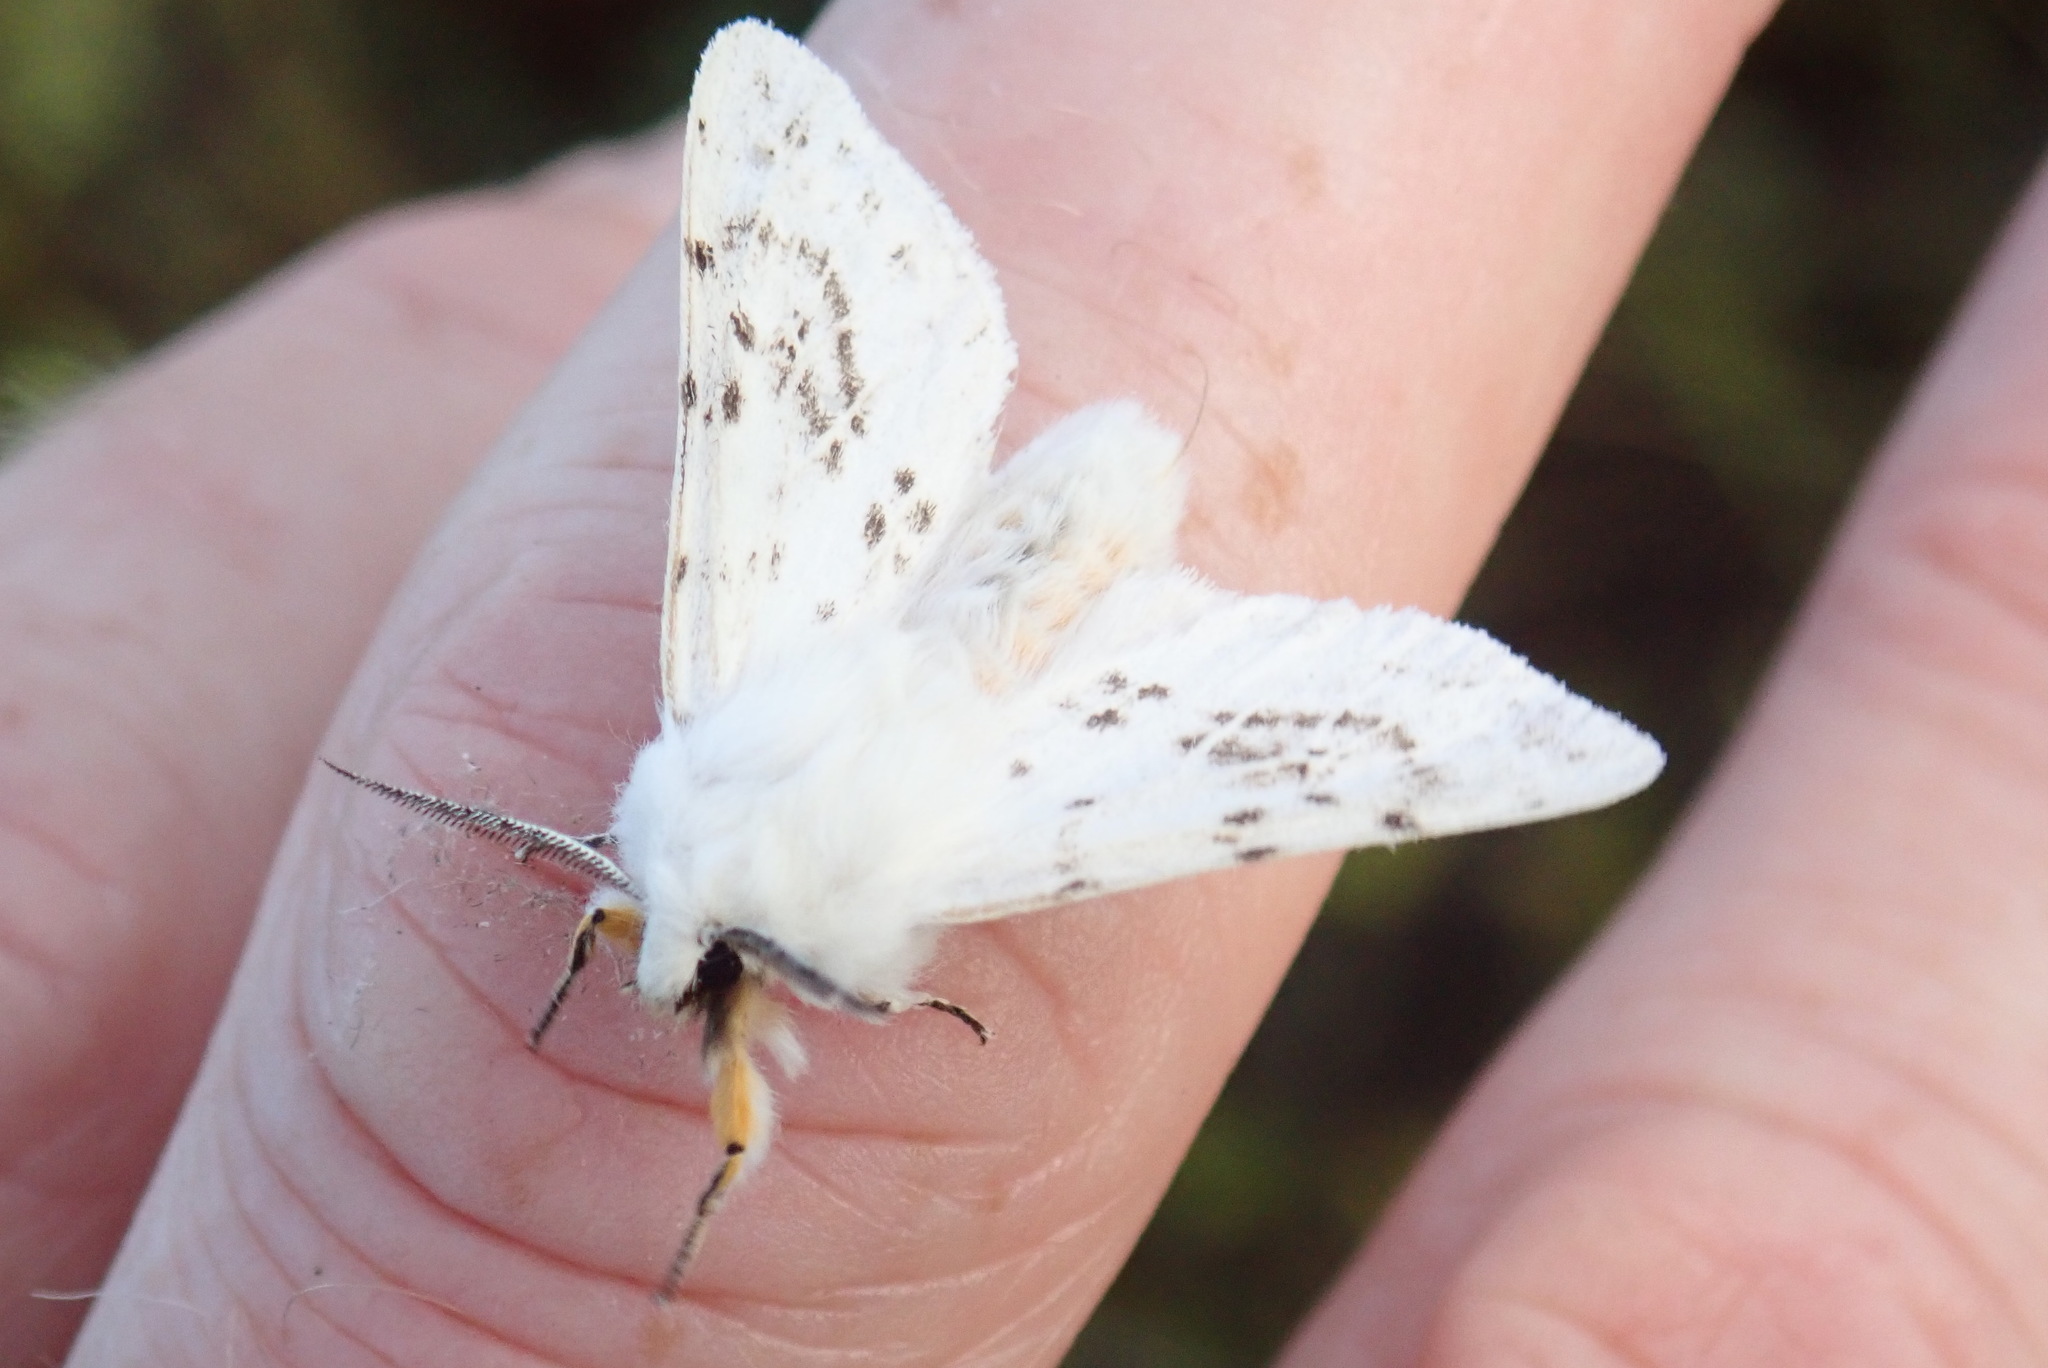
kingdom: Animalia
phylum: Arthropoda
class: Insecta
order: Lepidoptera
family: Erebidae
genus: Spilosoma
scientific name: Spilosoma dubia
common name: Dubious tiger moth
